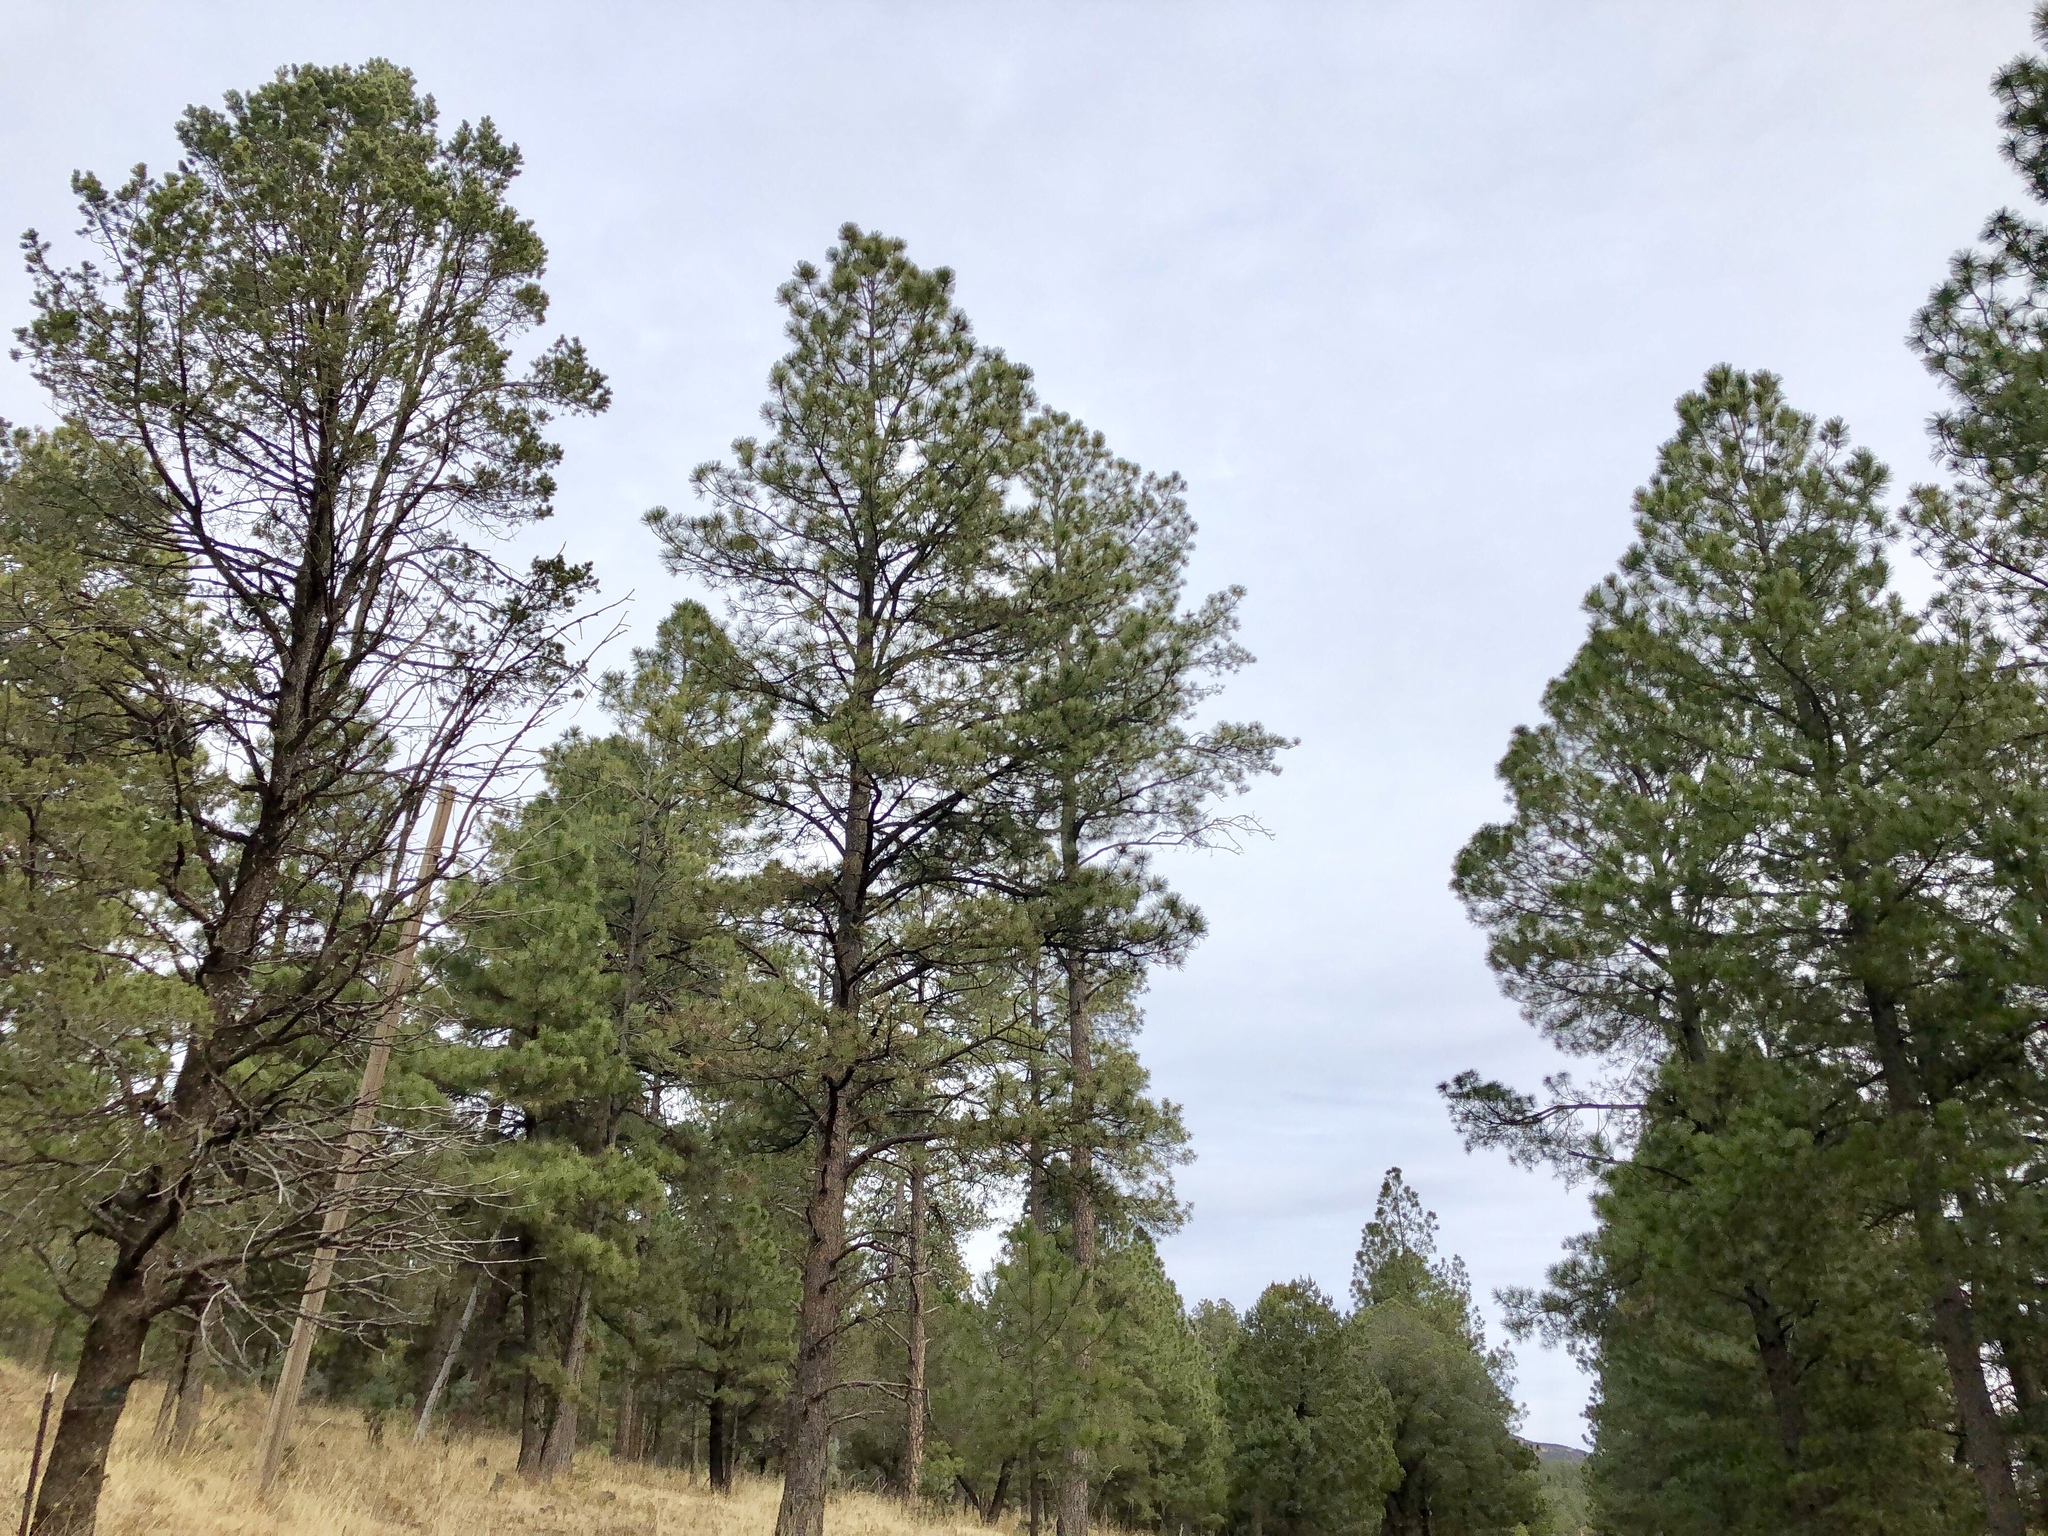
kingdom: Plantae
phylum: Tracheophyta
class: Pinopsida
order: Pinales
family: Pinaceae
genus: Pinus
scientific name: Pinus ponderosa
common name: Western yellow-pine
